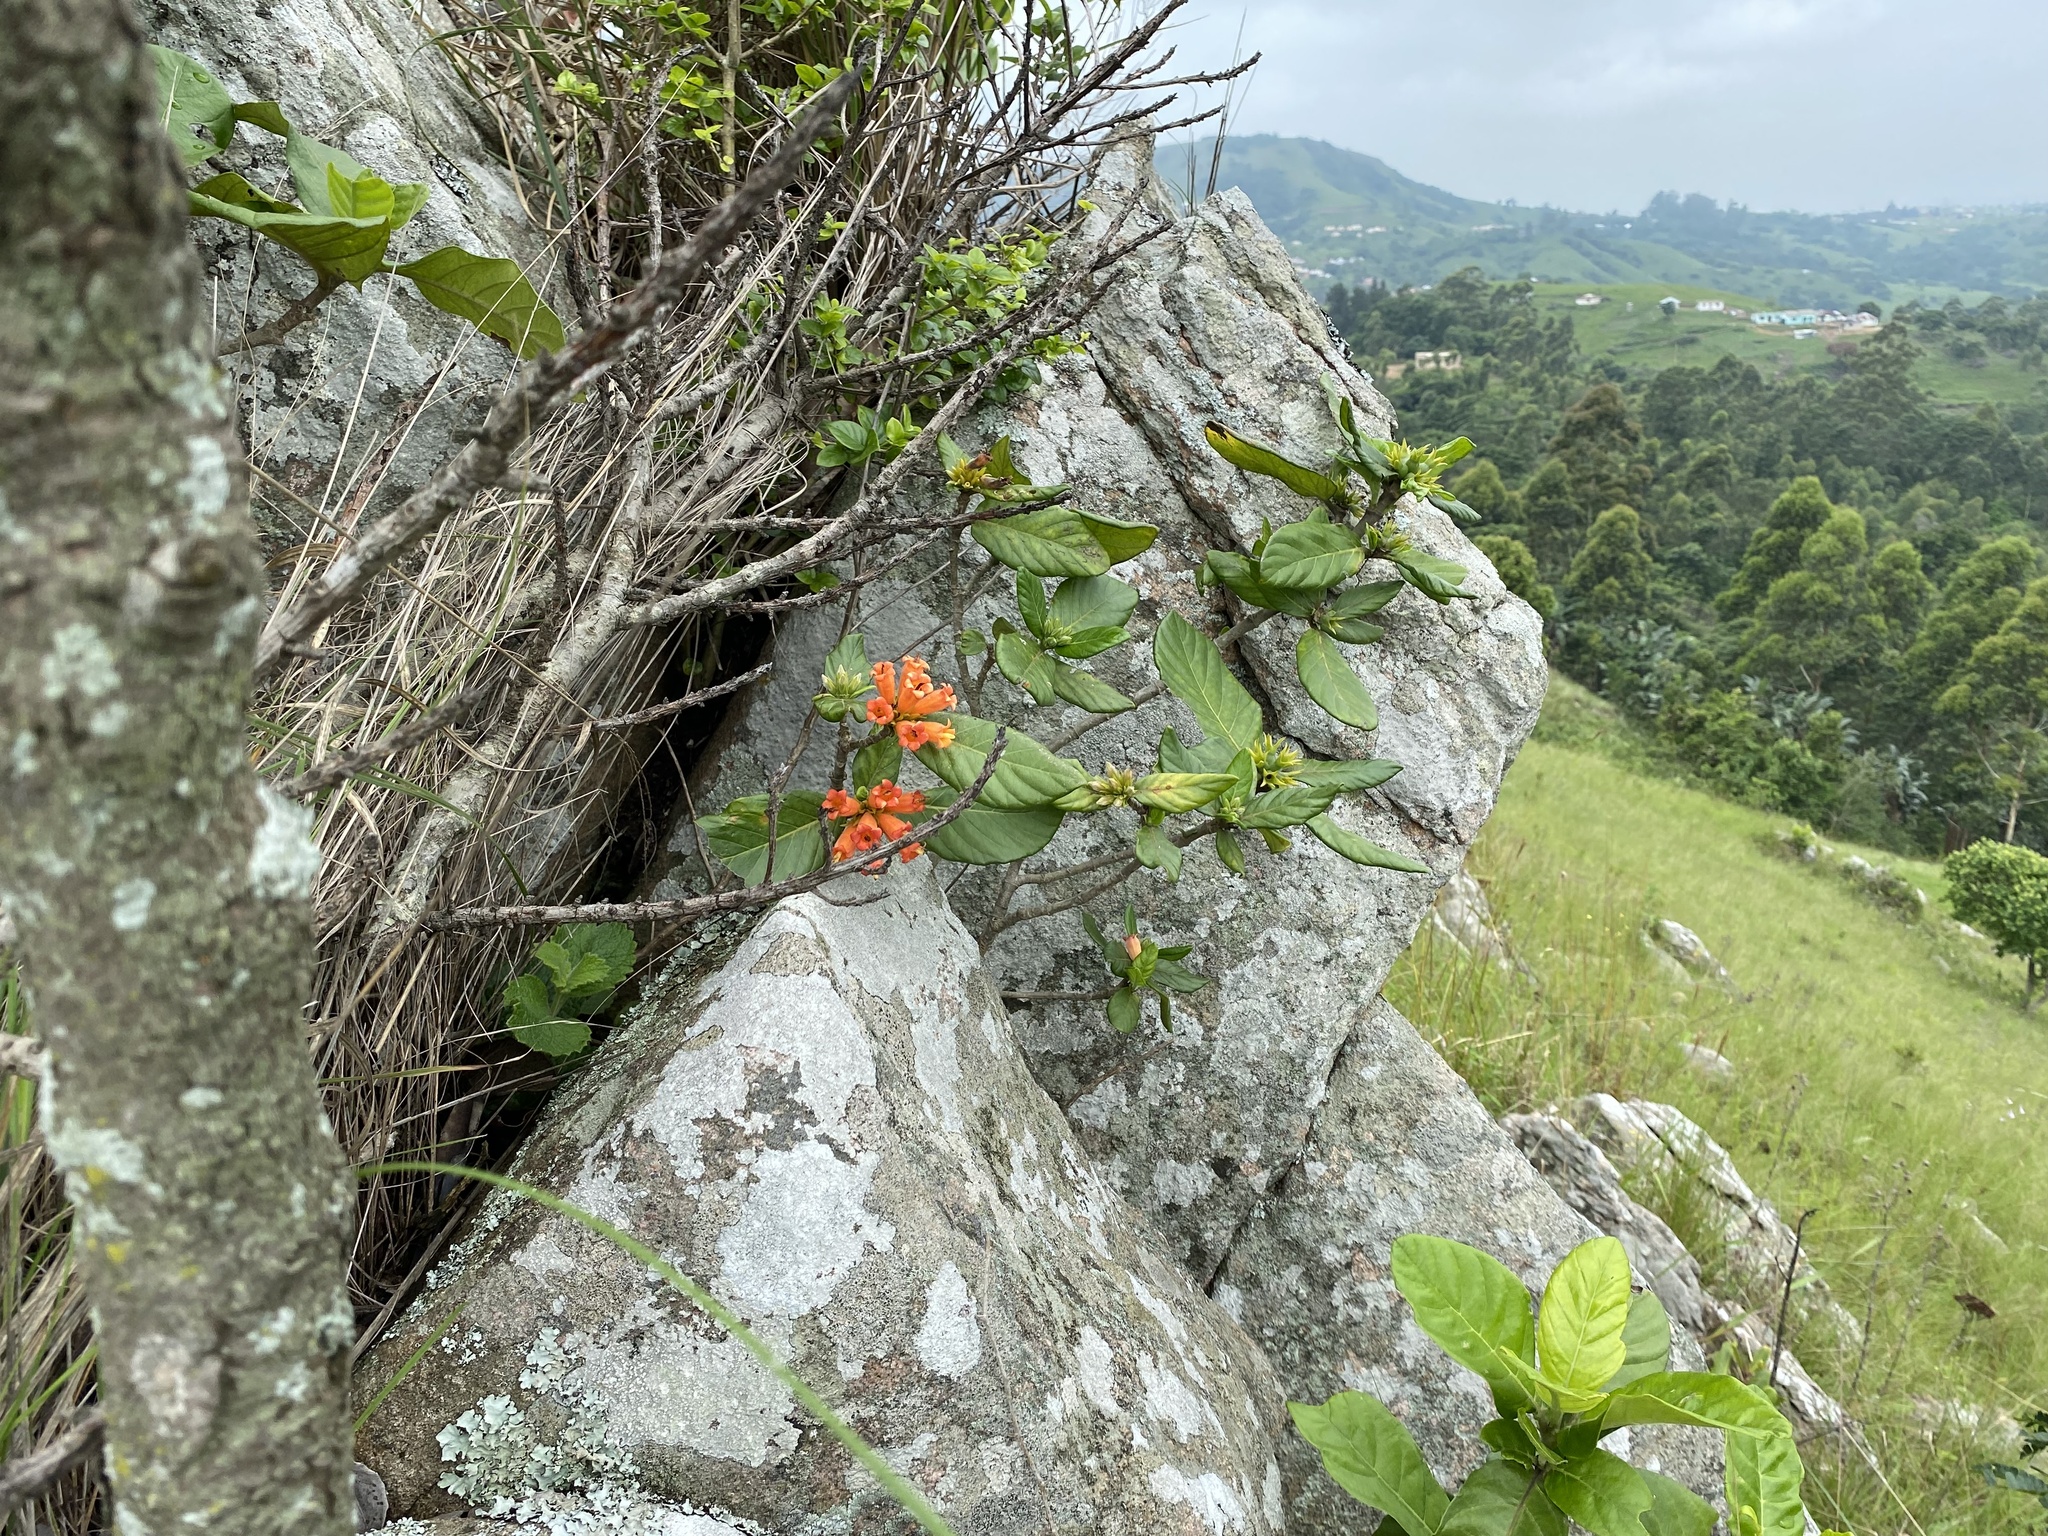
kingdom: Plantae
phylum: Tracheophyta
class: Magnoliopsida
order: Gentianales
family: Rubiaceae
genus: Burchellia
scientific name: Burchellia bubalina
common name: Wild pomegranate
